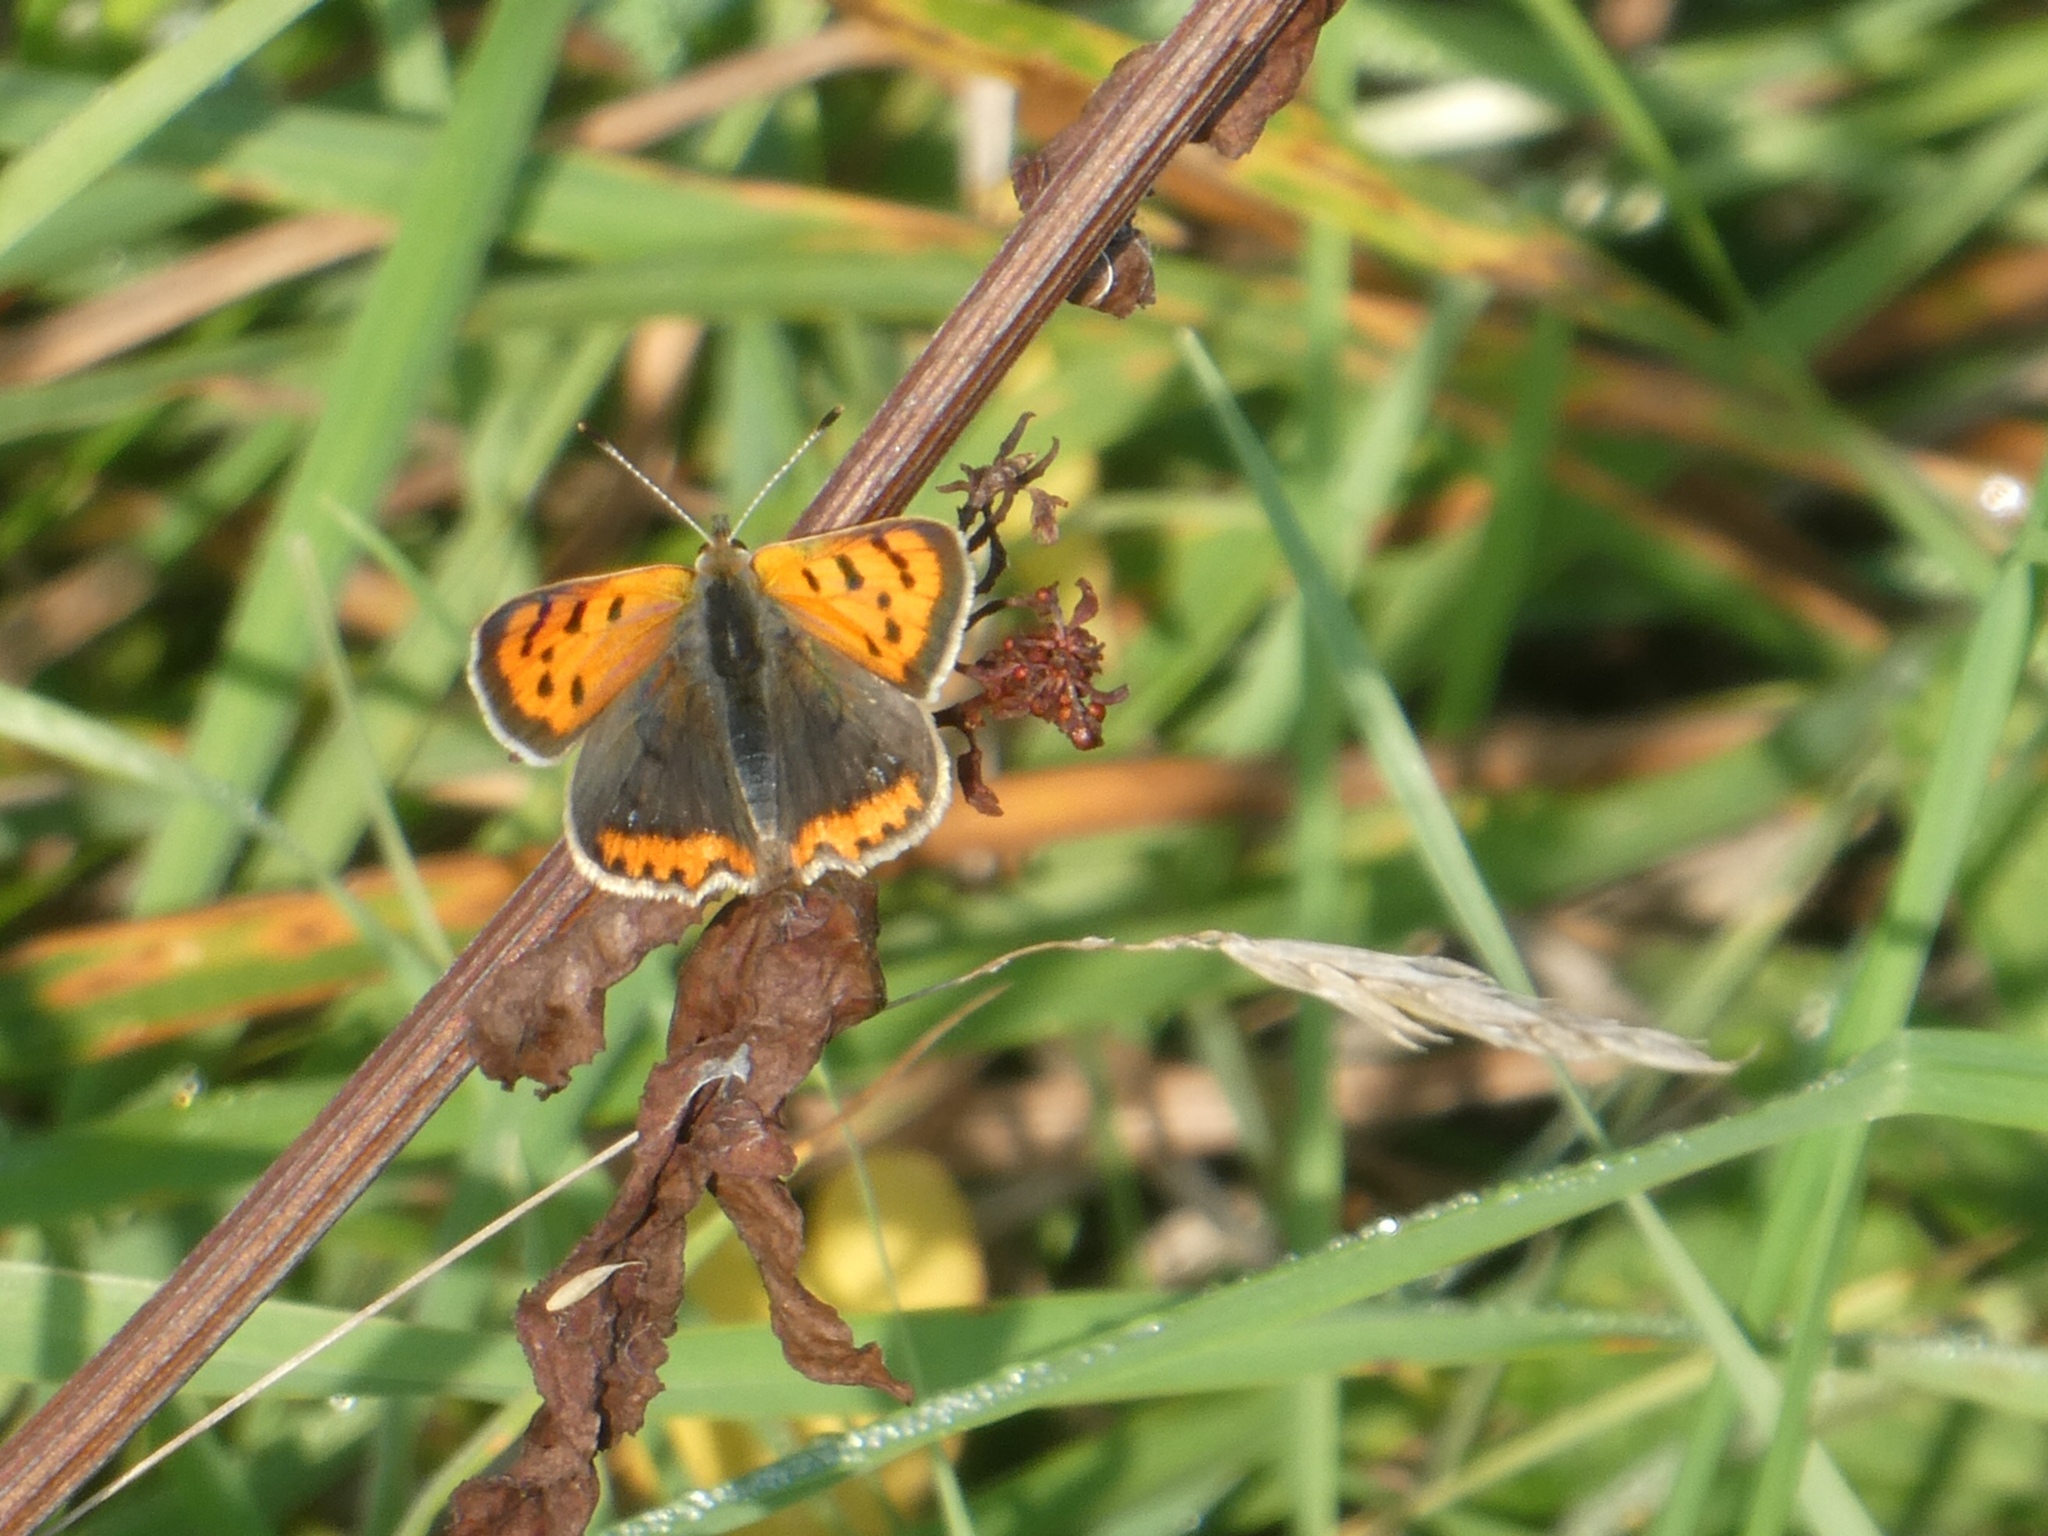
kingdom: Animalia
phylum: Arthropoda
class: Insecta
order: Lepidoptera
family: Lycaenidae
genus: Lycaena
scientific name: Lycaena phlaeas
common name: Small copper
